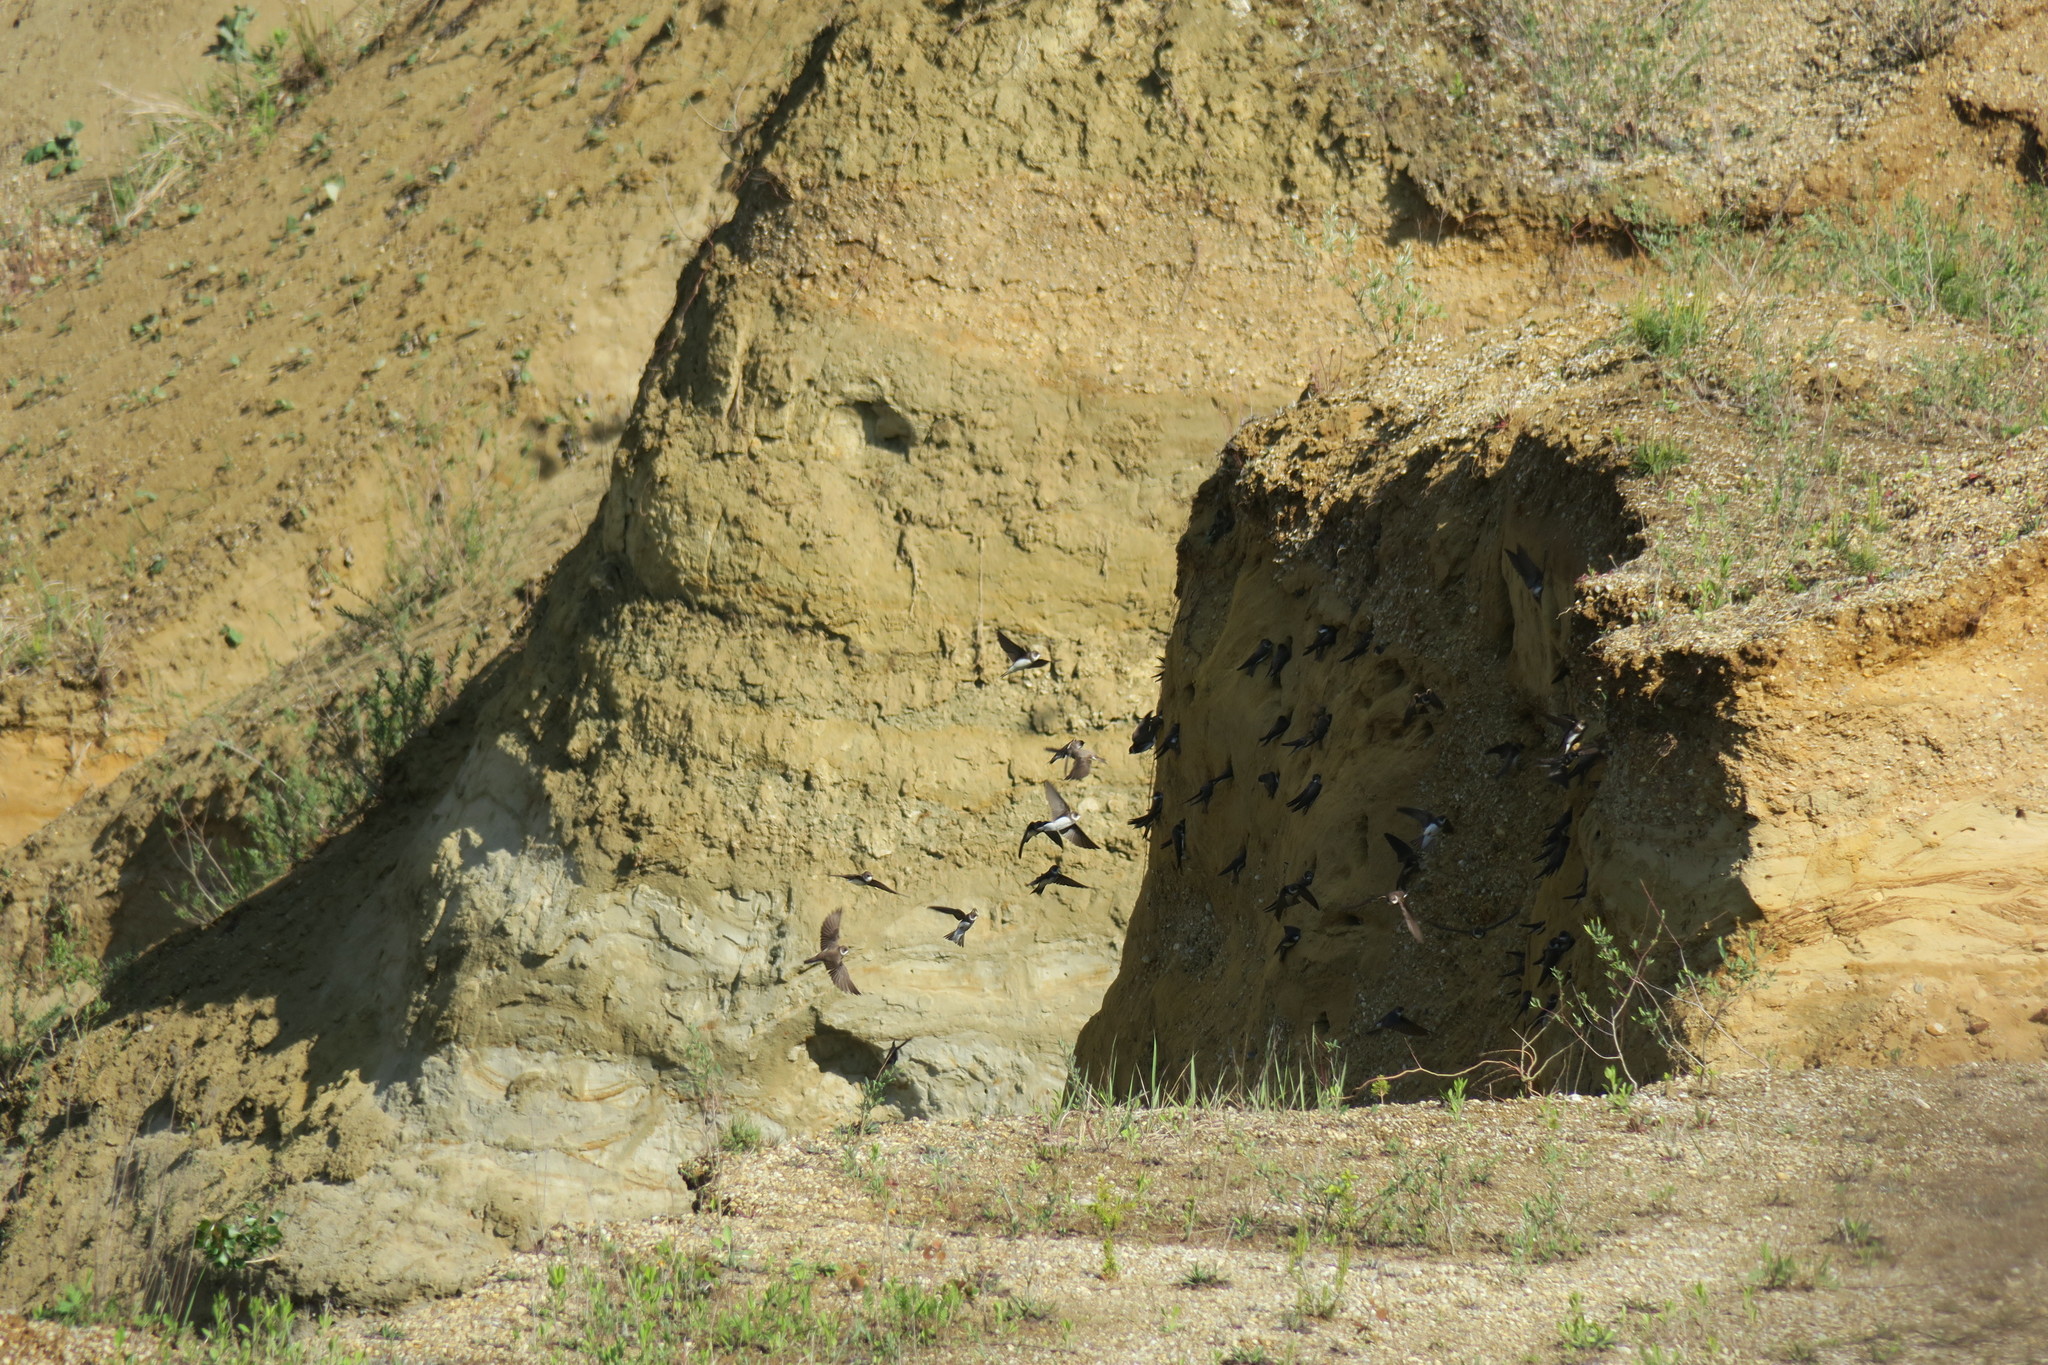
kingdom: Animalia
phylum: Chordata
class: Aves
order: Passeriformes
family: Hirundinidae
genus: Riparia
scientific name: Riparia riparia
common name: Sand martin
